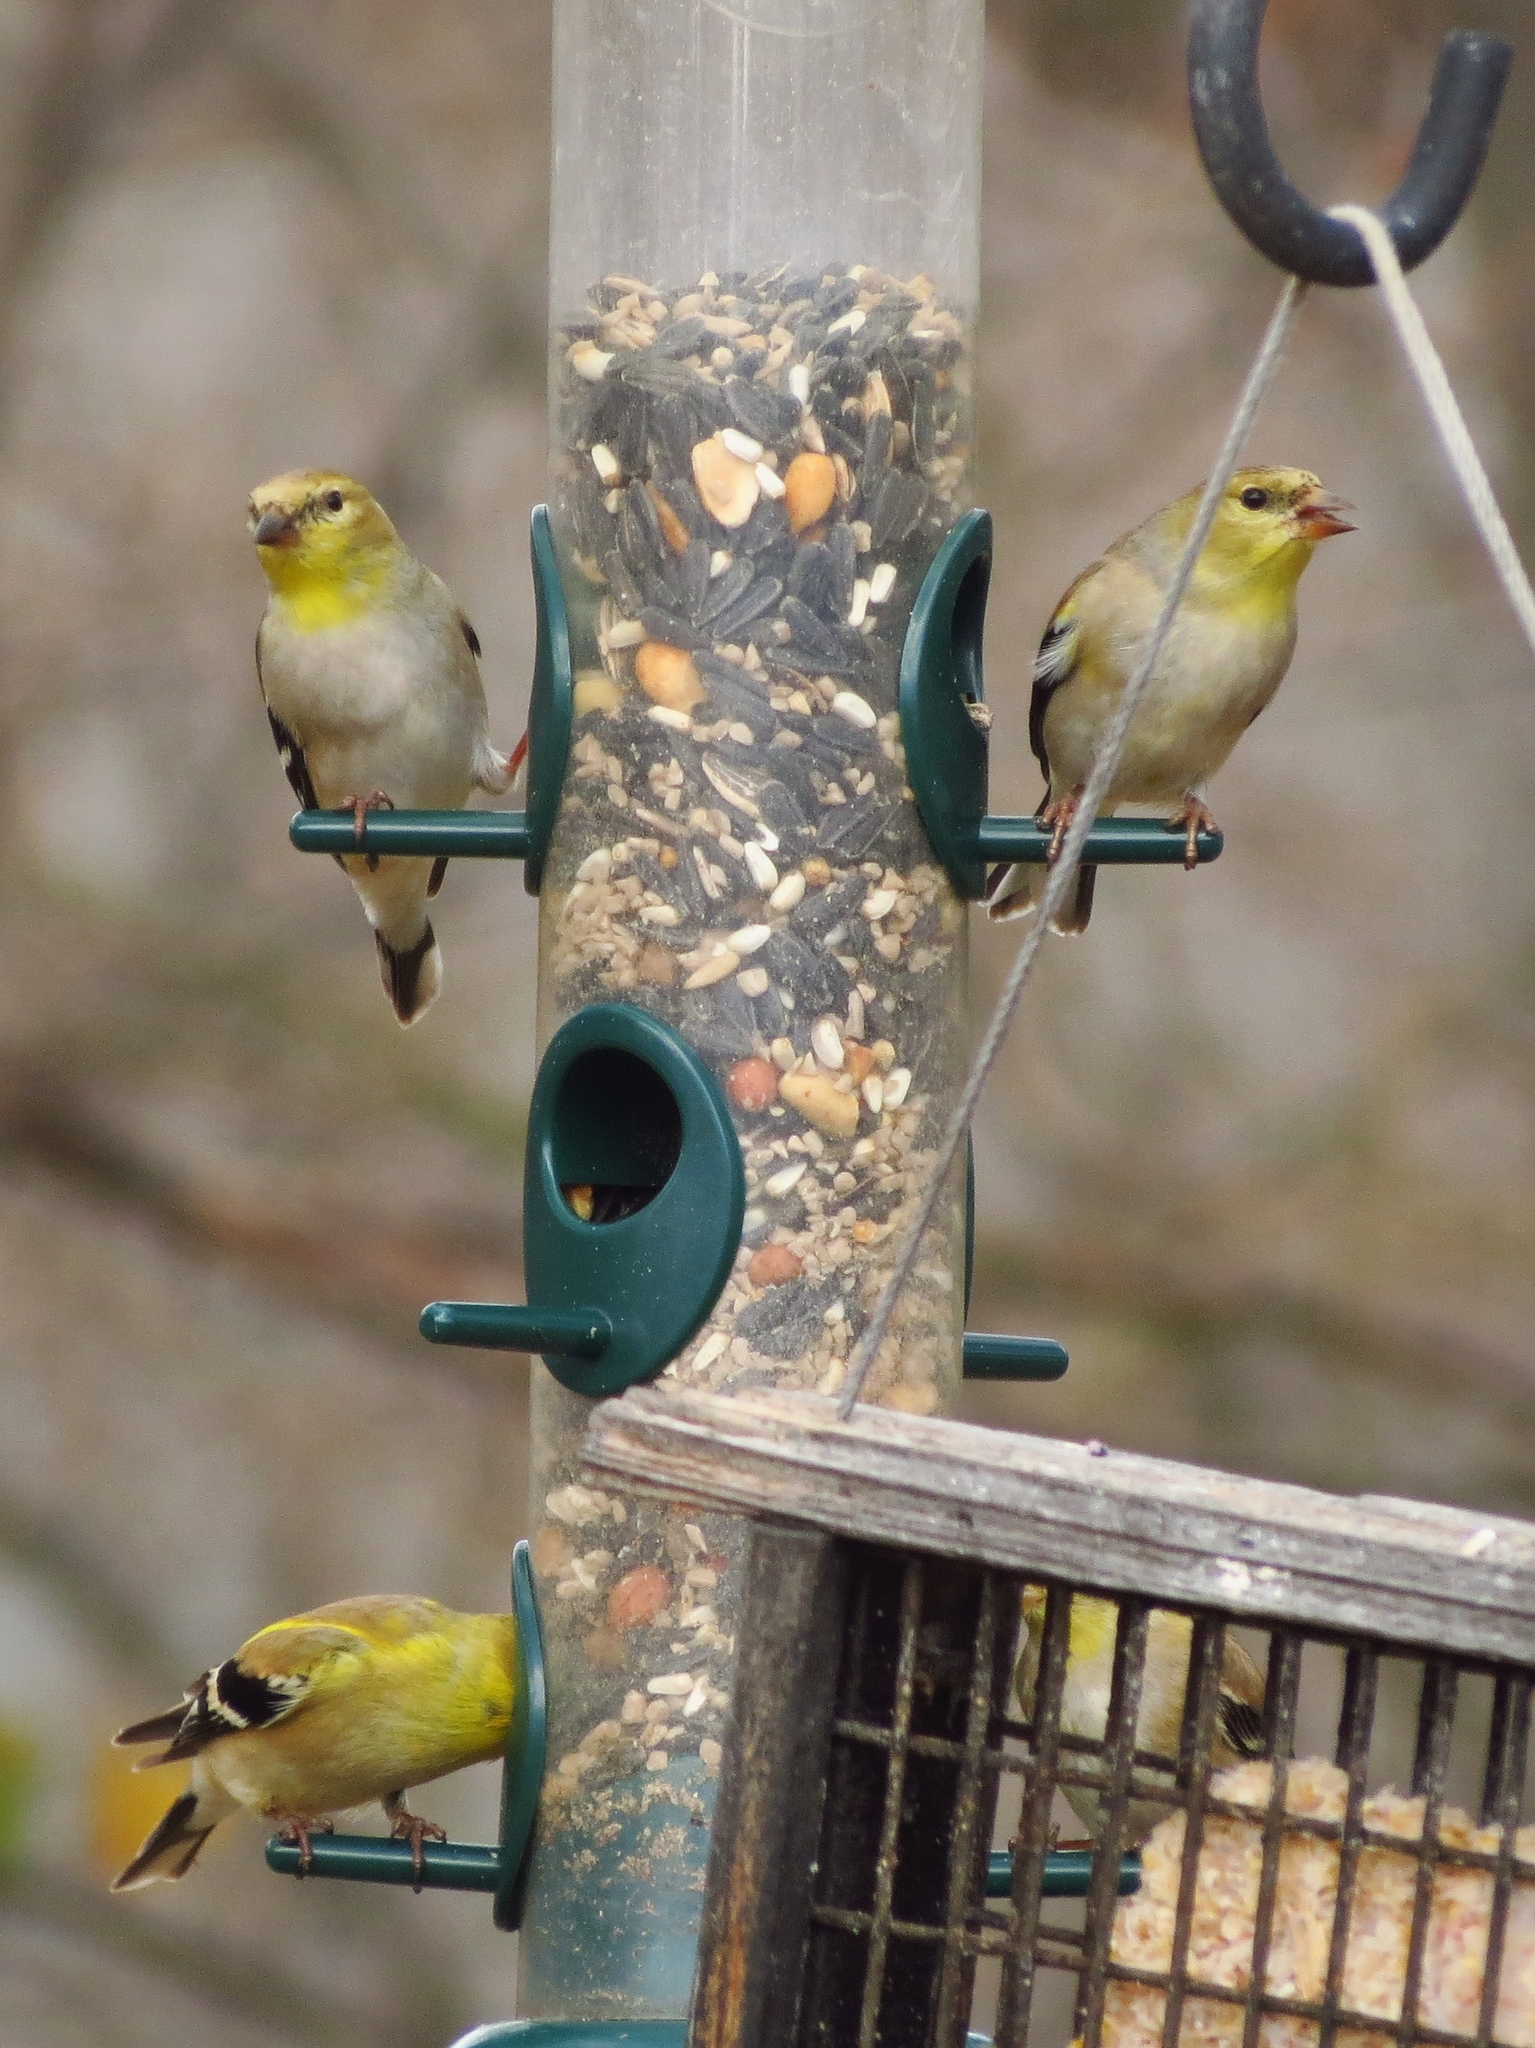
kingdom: Animalia
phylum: Chordata
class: Aves
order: Passeriformes
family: Fringillidae
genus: Spinus
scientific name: Spinus tristis
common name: American goldfinch
